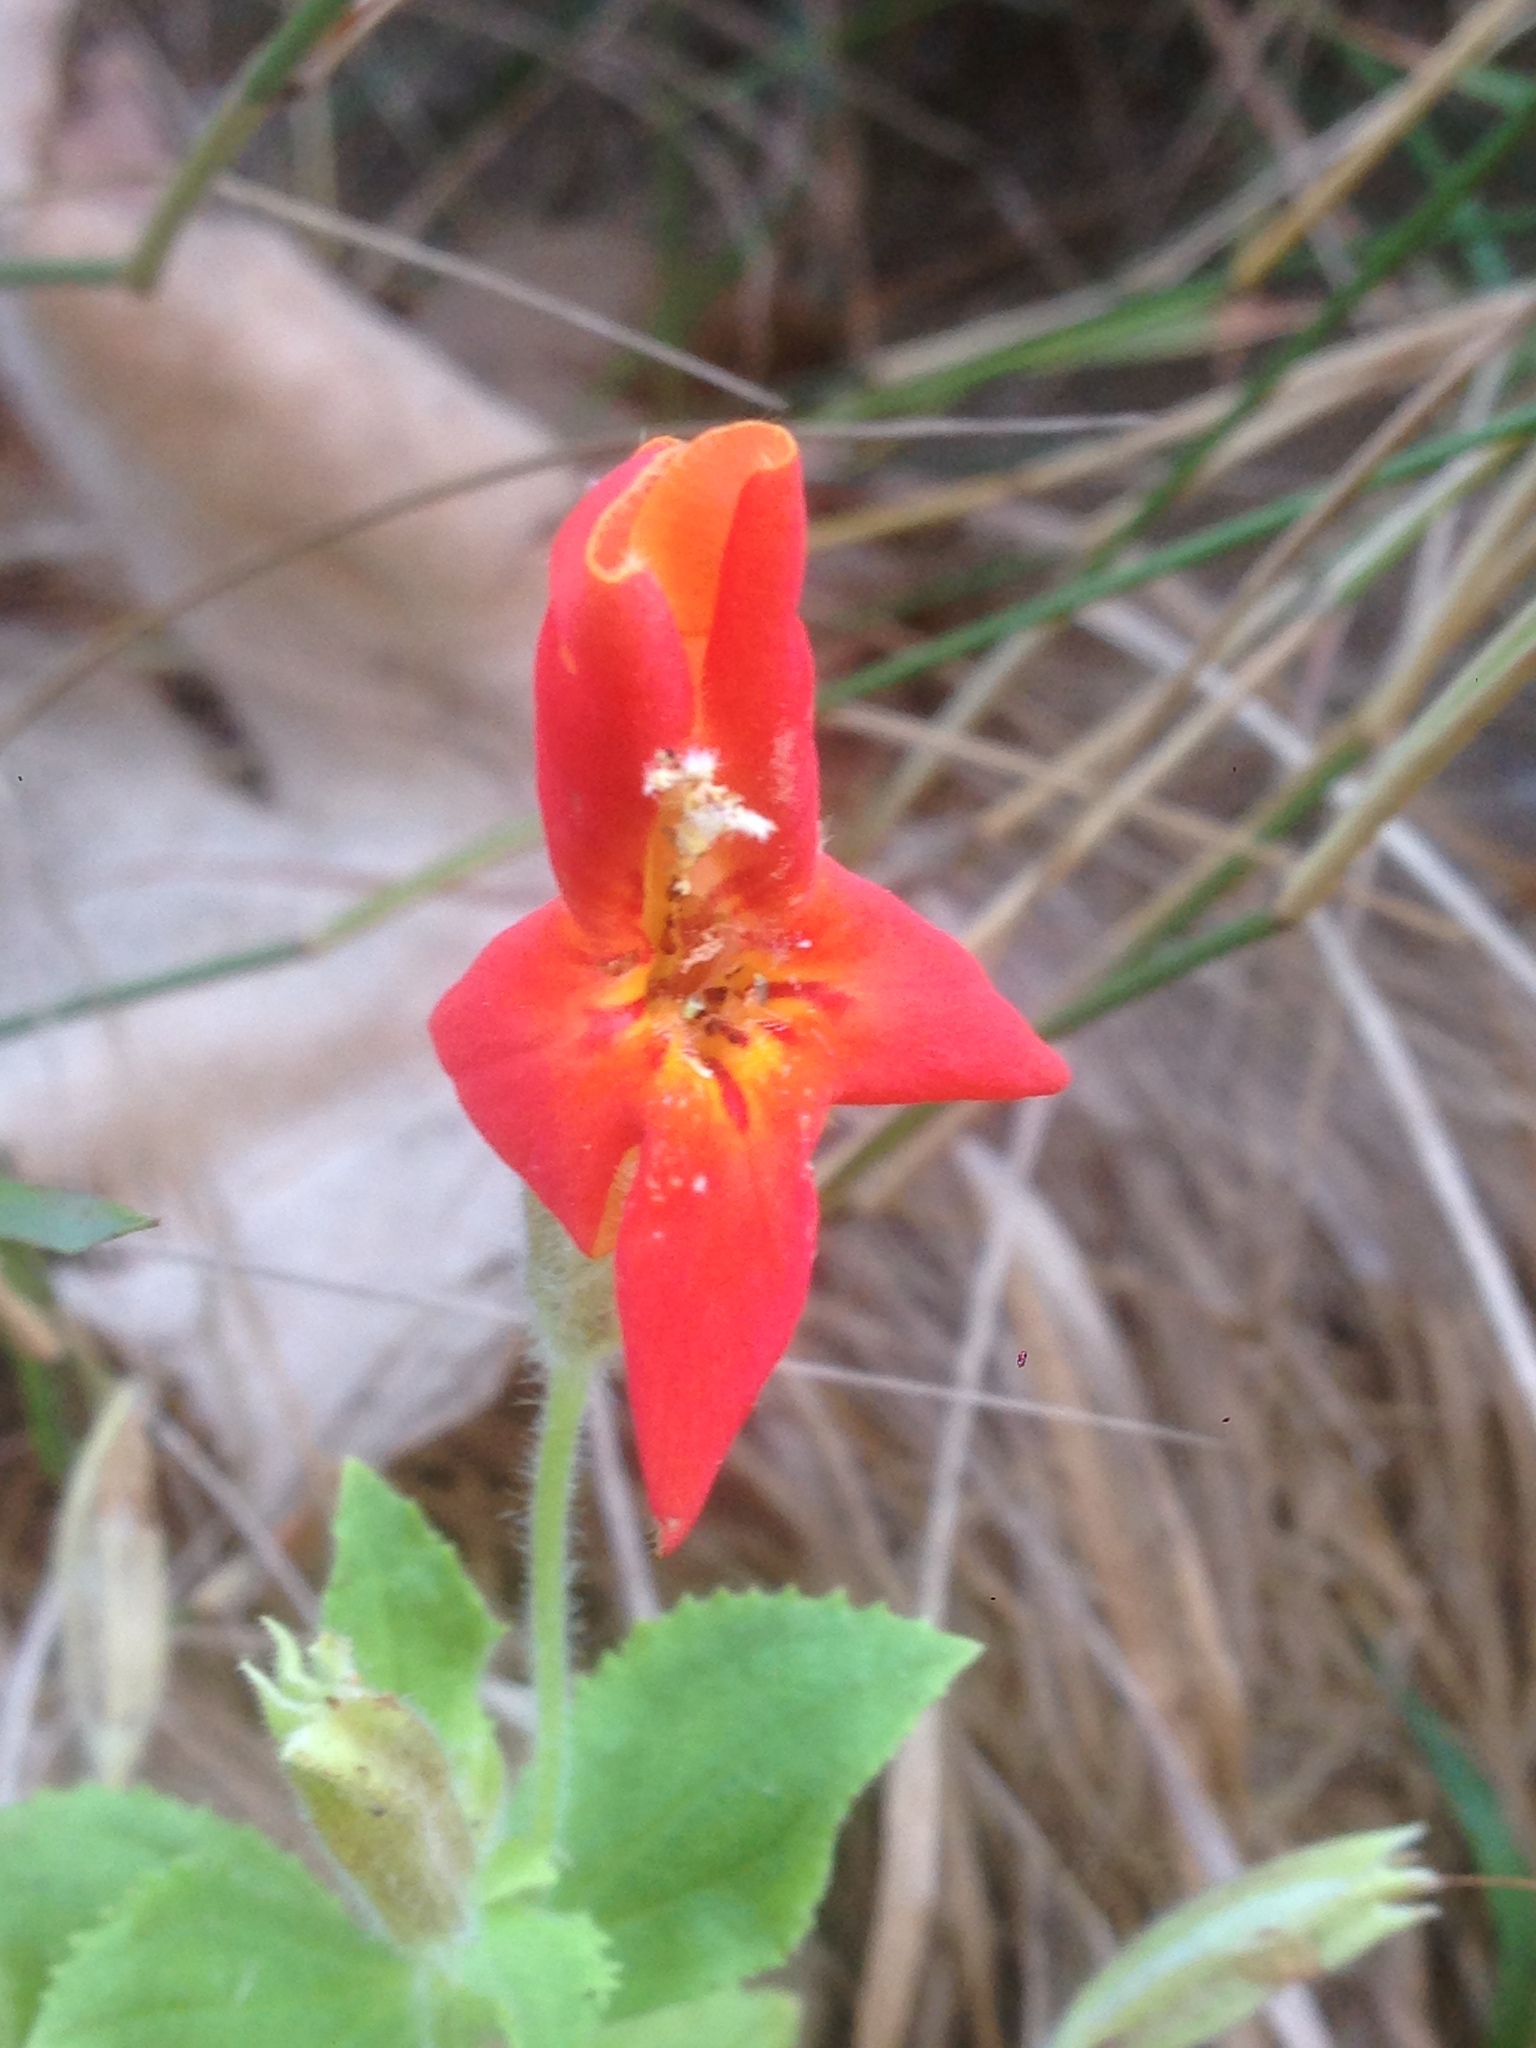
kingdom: Plantae
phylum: Tracheophyta
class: Magnoliopsida
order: Lamiales
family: Phrymaceae
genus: Erythranthe
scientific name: Erythranthe cardinalis
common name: Scarlet monkey-flower
